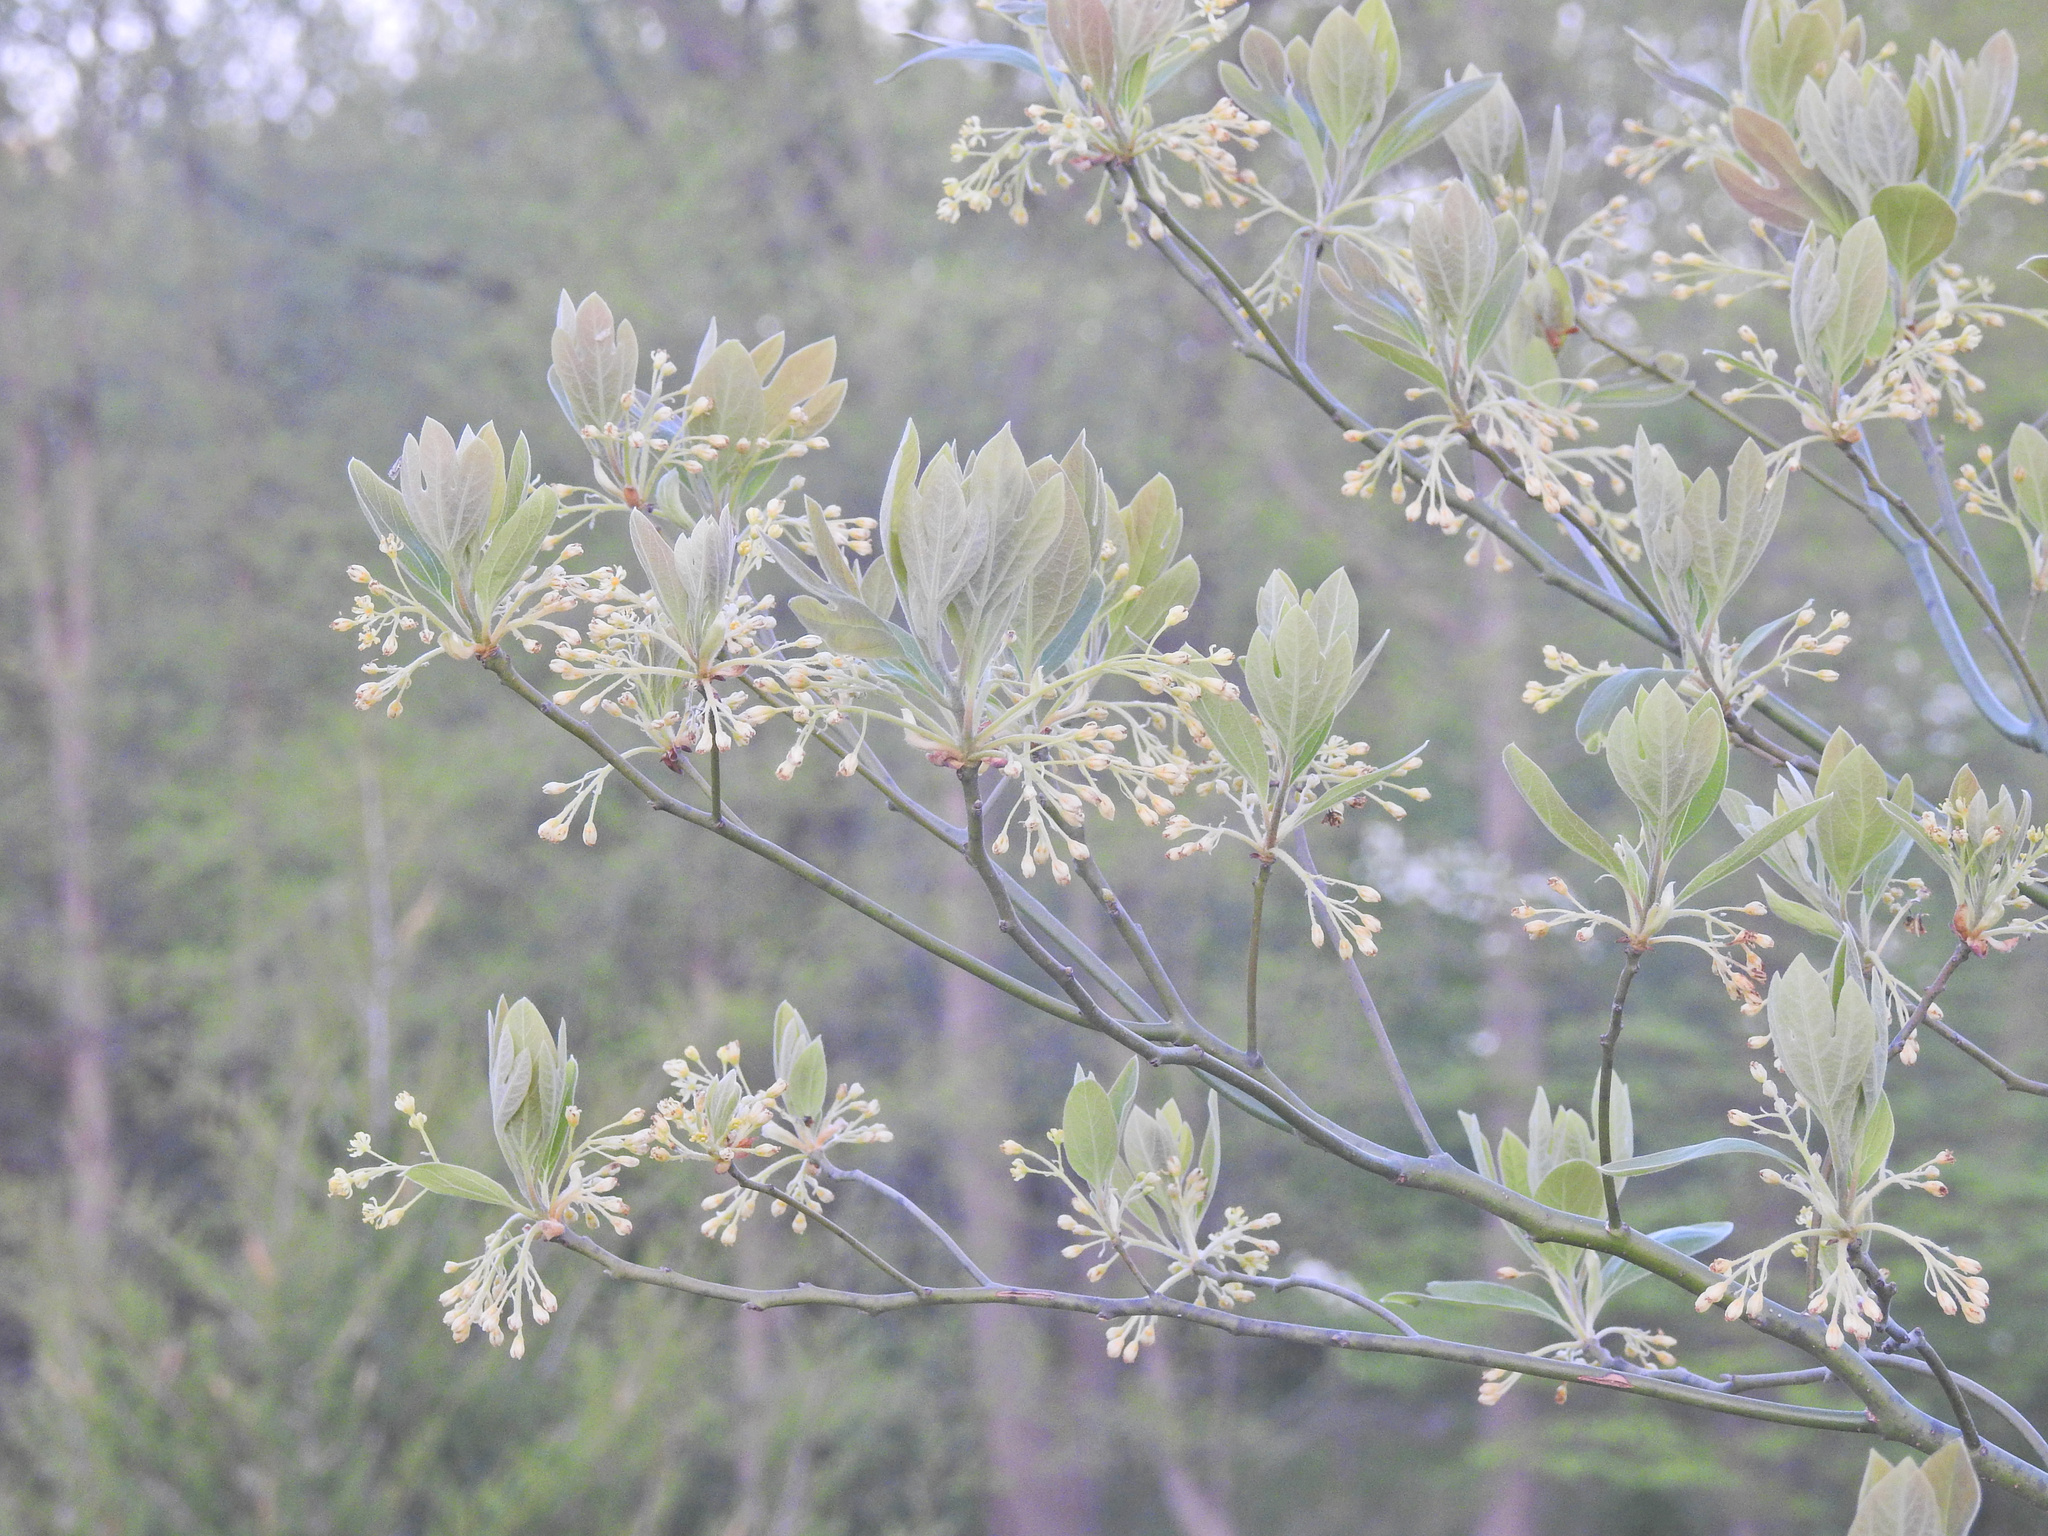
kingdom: Plantae
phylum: Tracheophyta
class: Magnoliopsida
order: Laurales
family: Lauraceae
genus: Sassafras
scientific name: Sassafras albidum
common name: Sassafras
